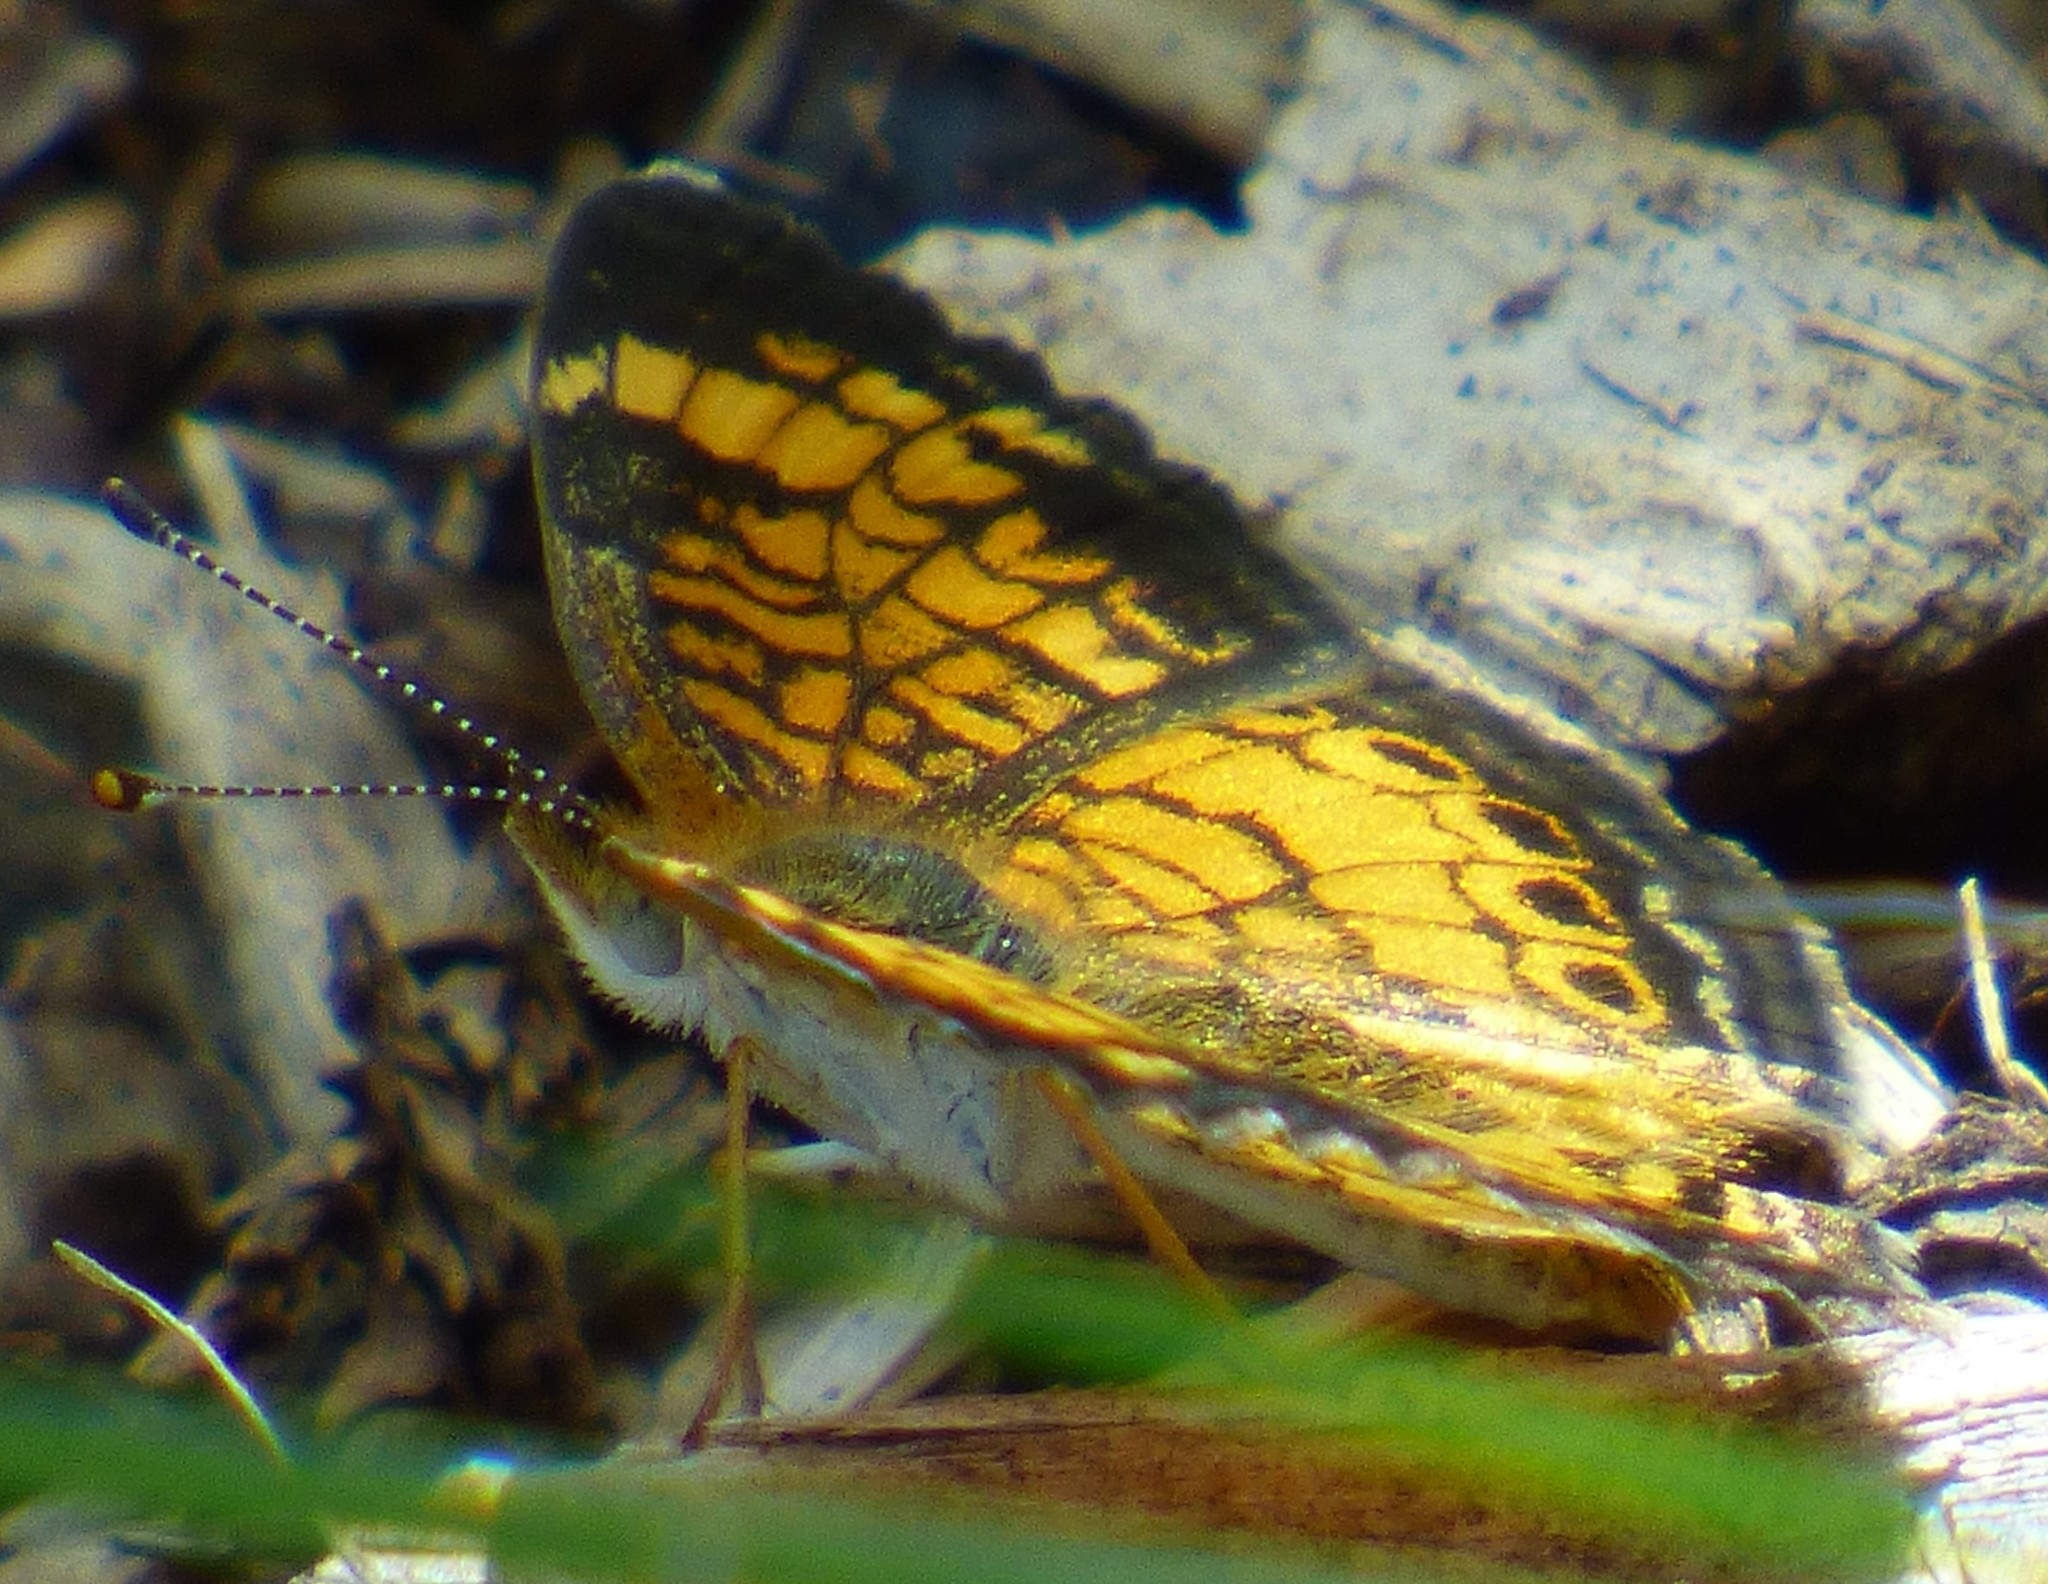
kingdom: Animalia
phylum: Arthropoda
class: Insecta
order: Lepidoptera
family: Nymphalidae
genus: Phyciodes
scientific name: Phyciodes tharos
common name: Pearl crescent
